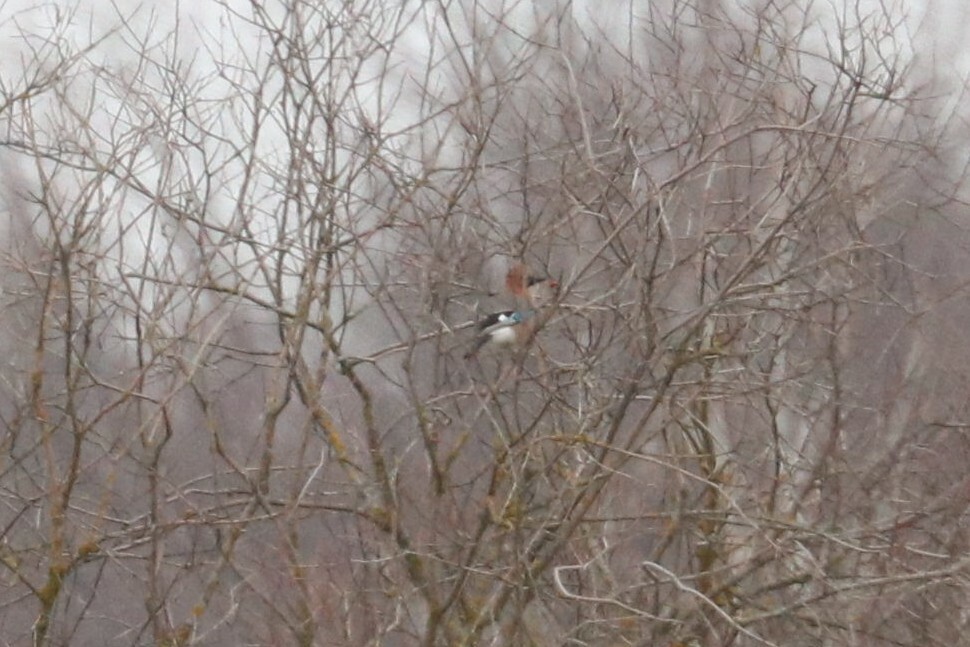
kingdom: Animalia
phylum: Chordata
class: Aves
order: Passeriformes
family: Corvidae
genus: Garrulus
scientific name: Garrulus glandarius
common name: Eurasian jay
